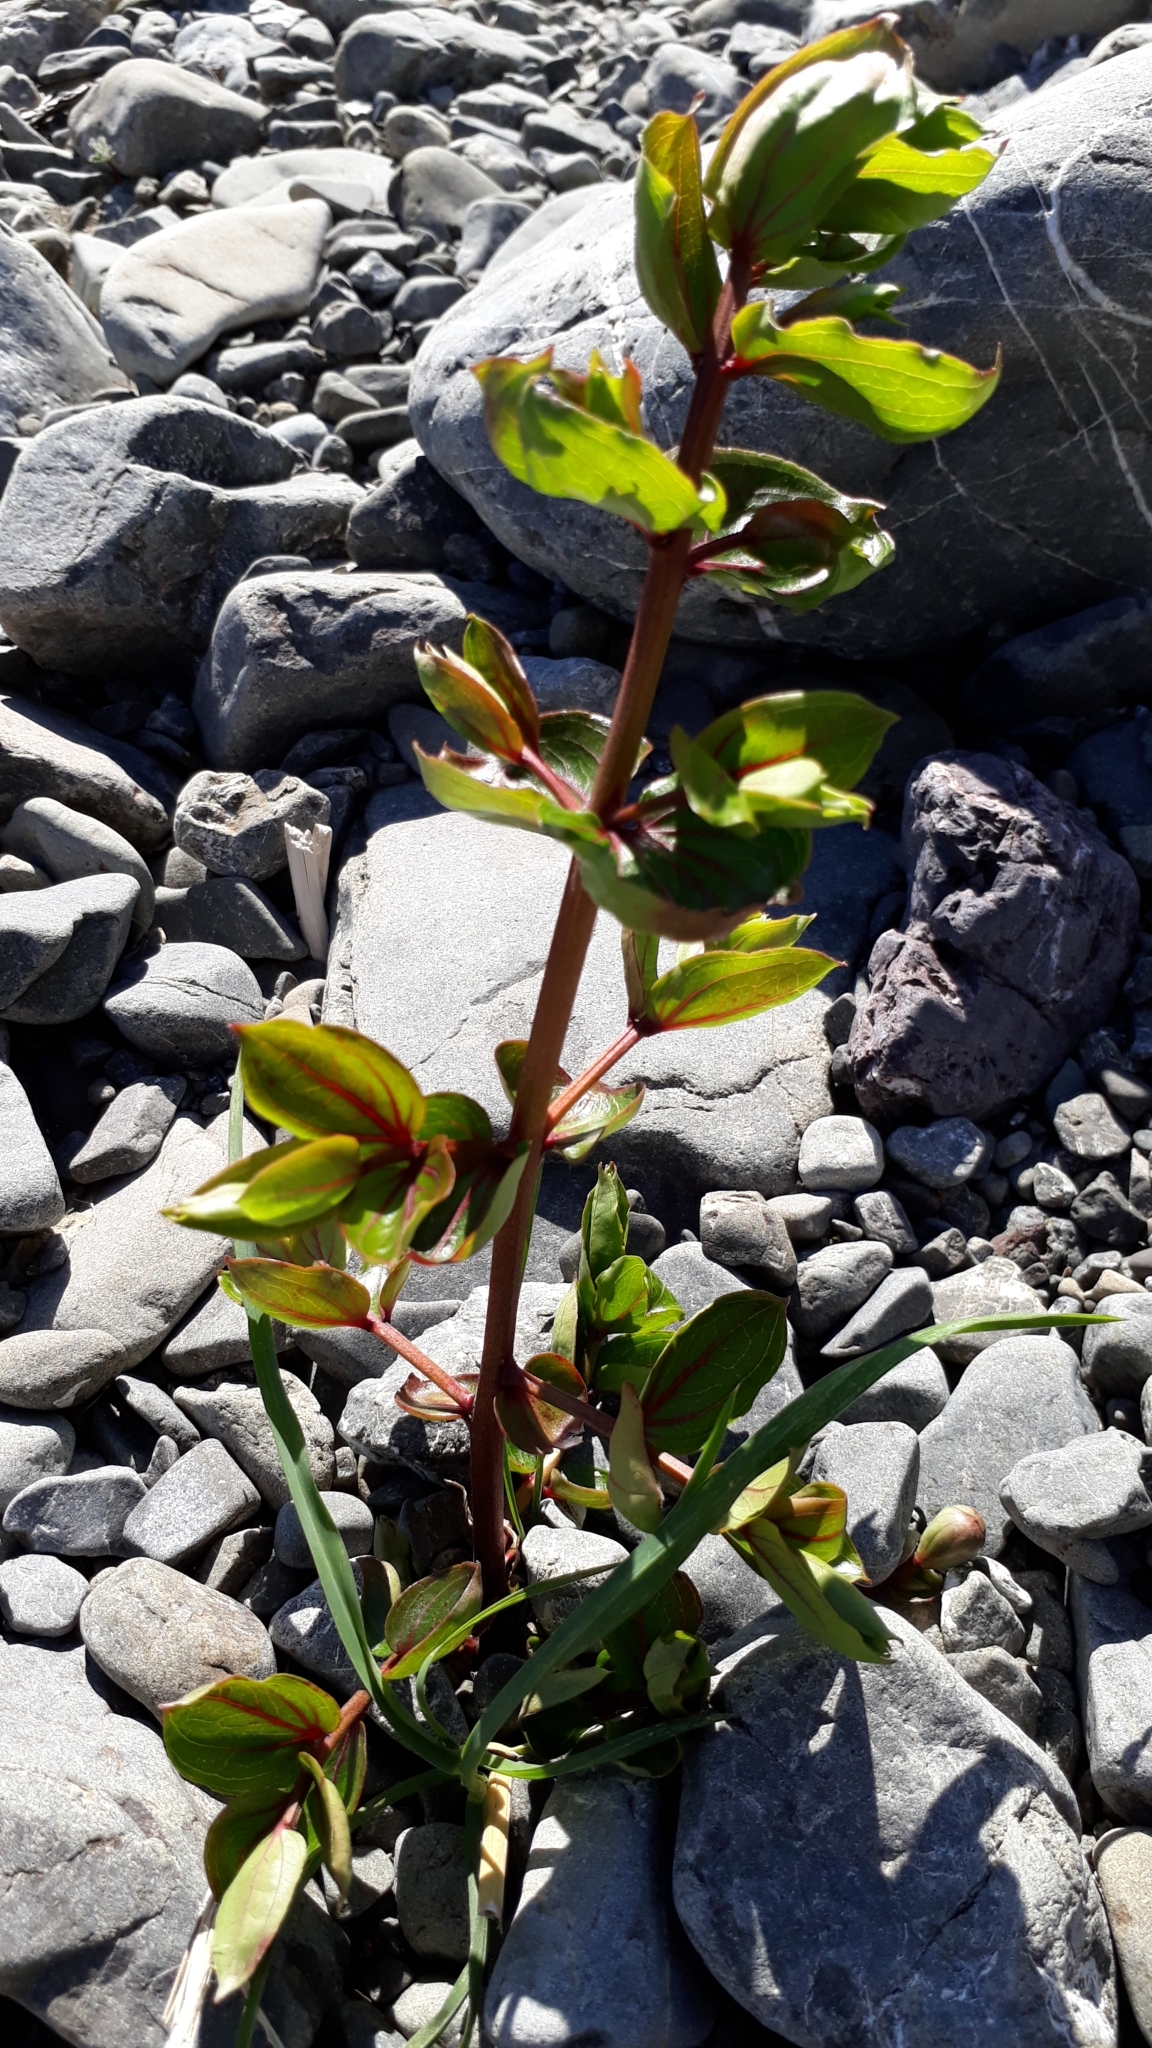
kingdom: Plantae
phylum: Tracheophyta
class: Magnoliopsida
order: Cucurbitales
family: Coriariaceae
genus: Coriaria
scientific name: Coriaria sarmentosa
